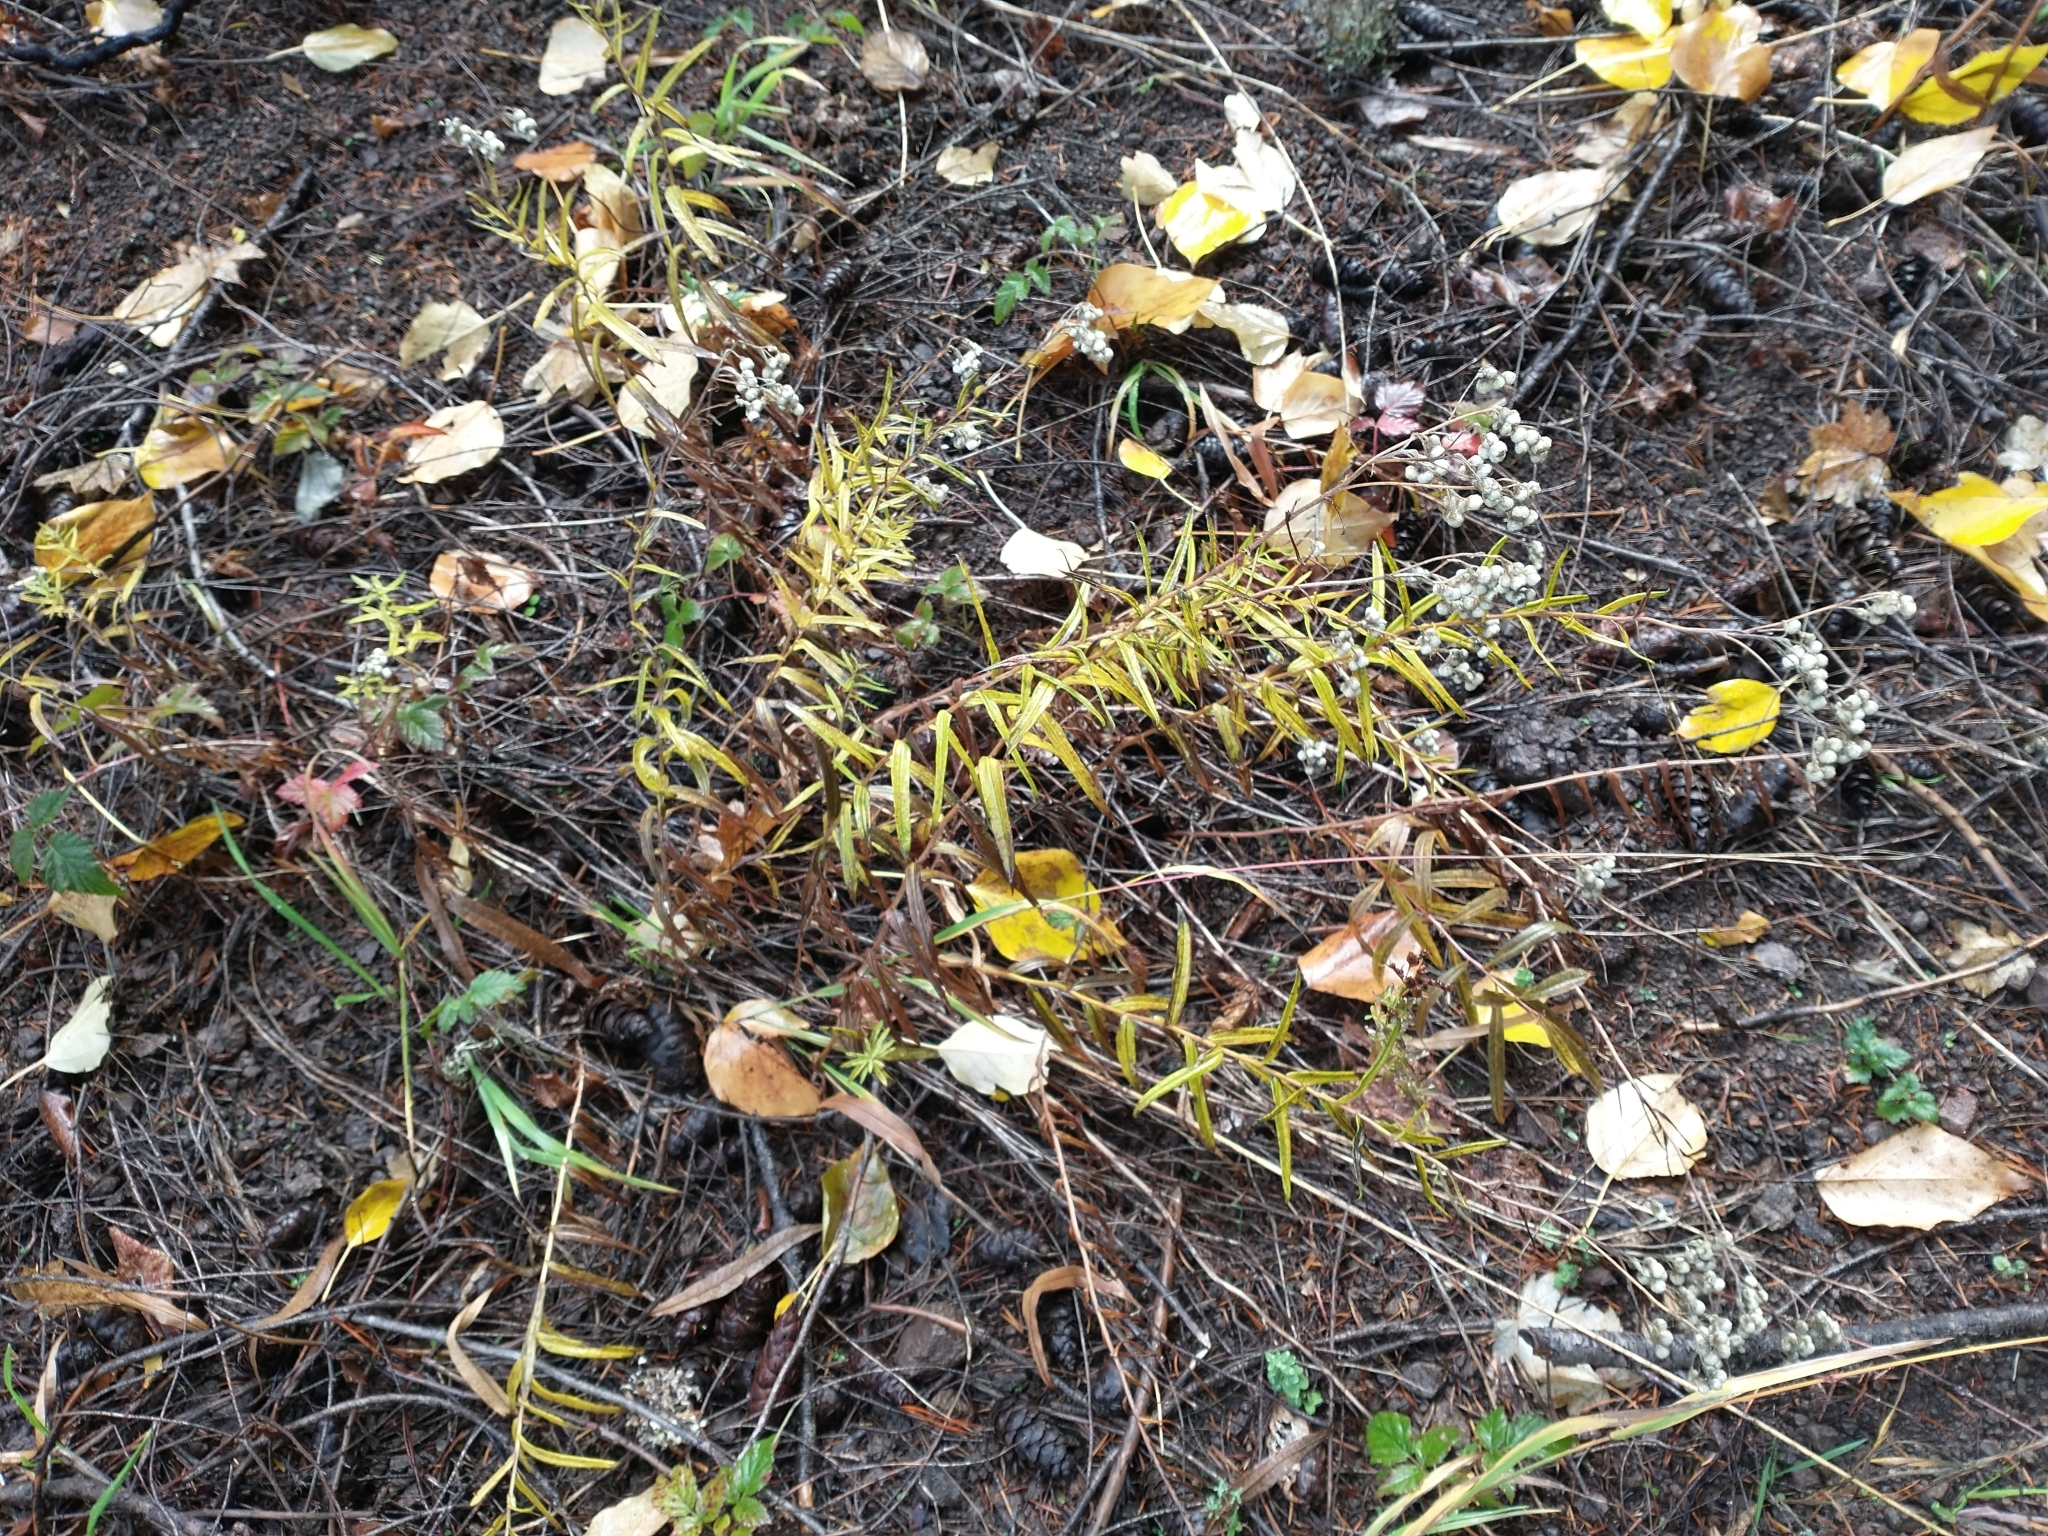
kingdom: Plantae
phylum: Tracheophyta
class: Magnoliopsida
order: Asterales
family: Asteraceae
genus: Anaphalis
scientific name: Anaphalis margaritacea
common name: Pearly everlasting
